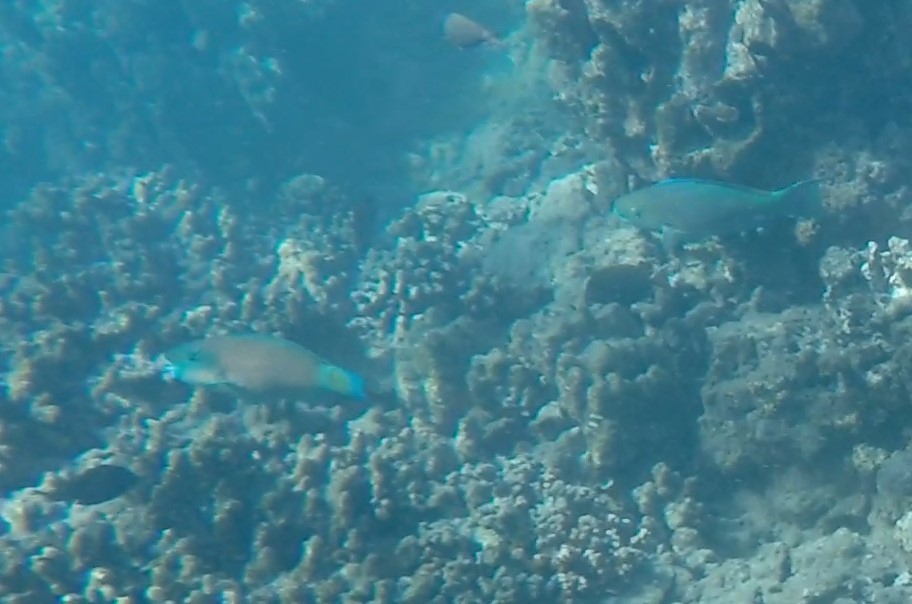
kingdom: Animalia
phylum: Chordata
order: Perciformes
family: Scaridae
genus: Chlorurus
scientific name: Chlorurus spilurus
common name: Bullethead parrotfish
